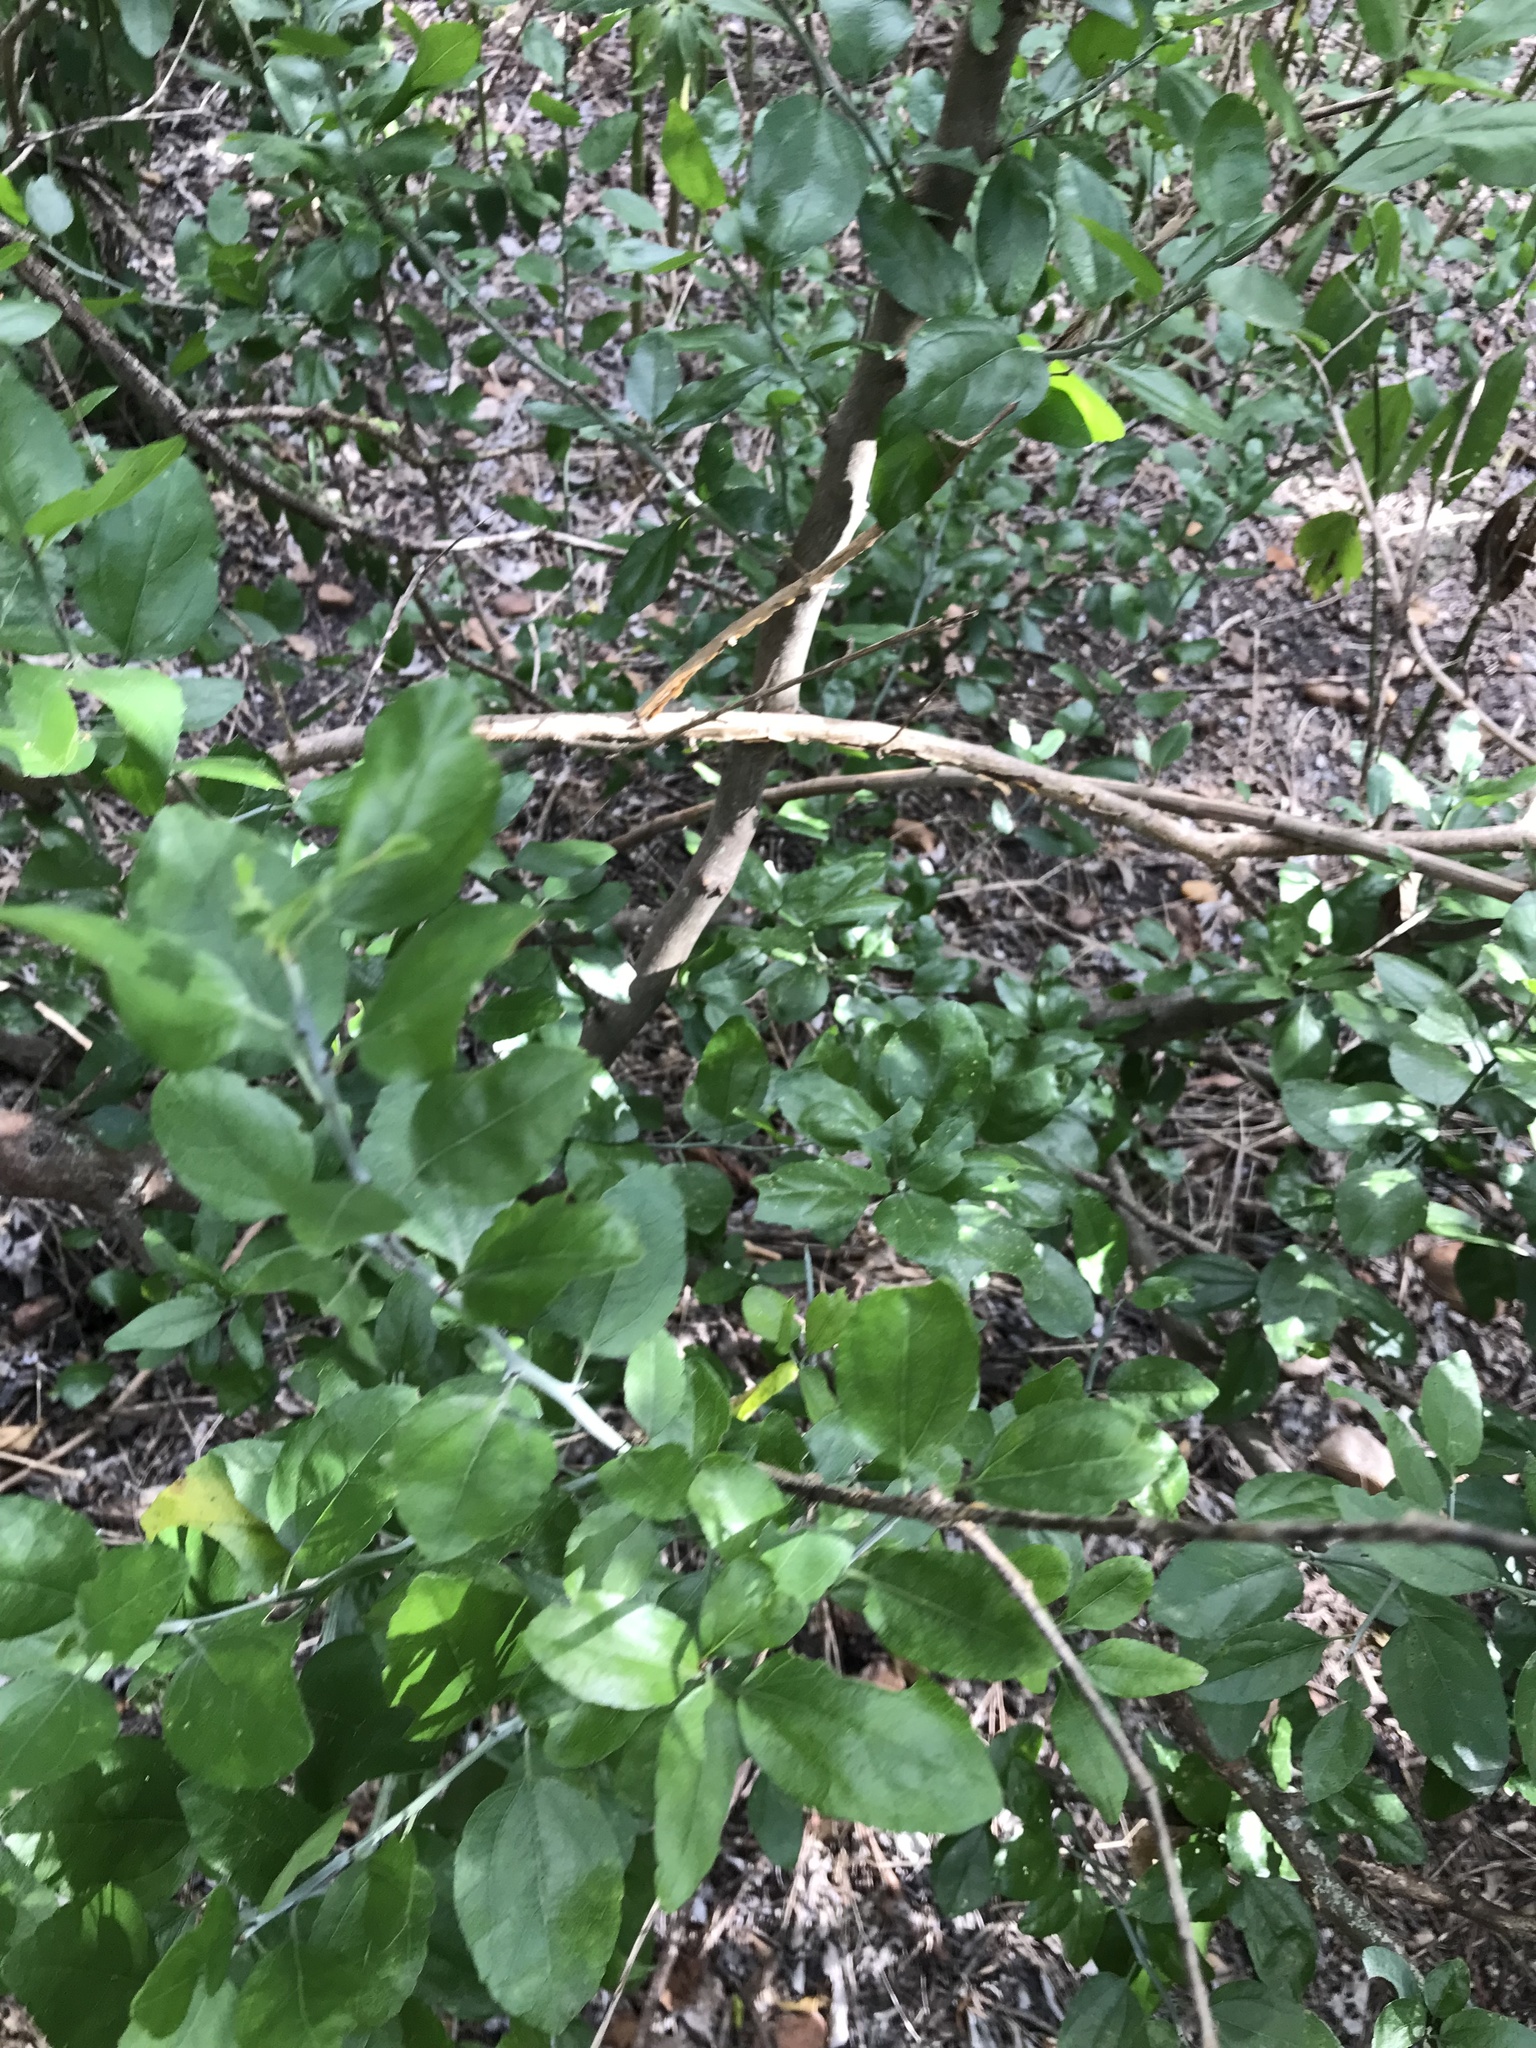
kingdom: Plantae
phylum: Tracheophyta
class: Magnoliopsida
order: Rosales
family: Rhamnaceae
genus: Sarcomphalus
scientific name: Sarcomphalus obtusifolius
